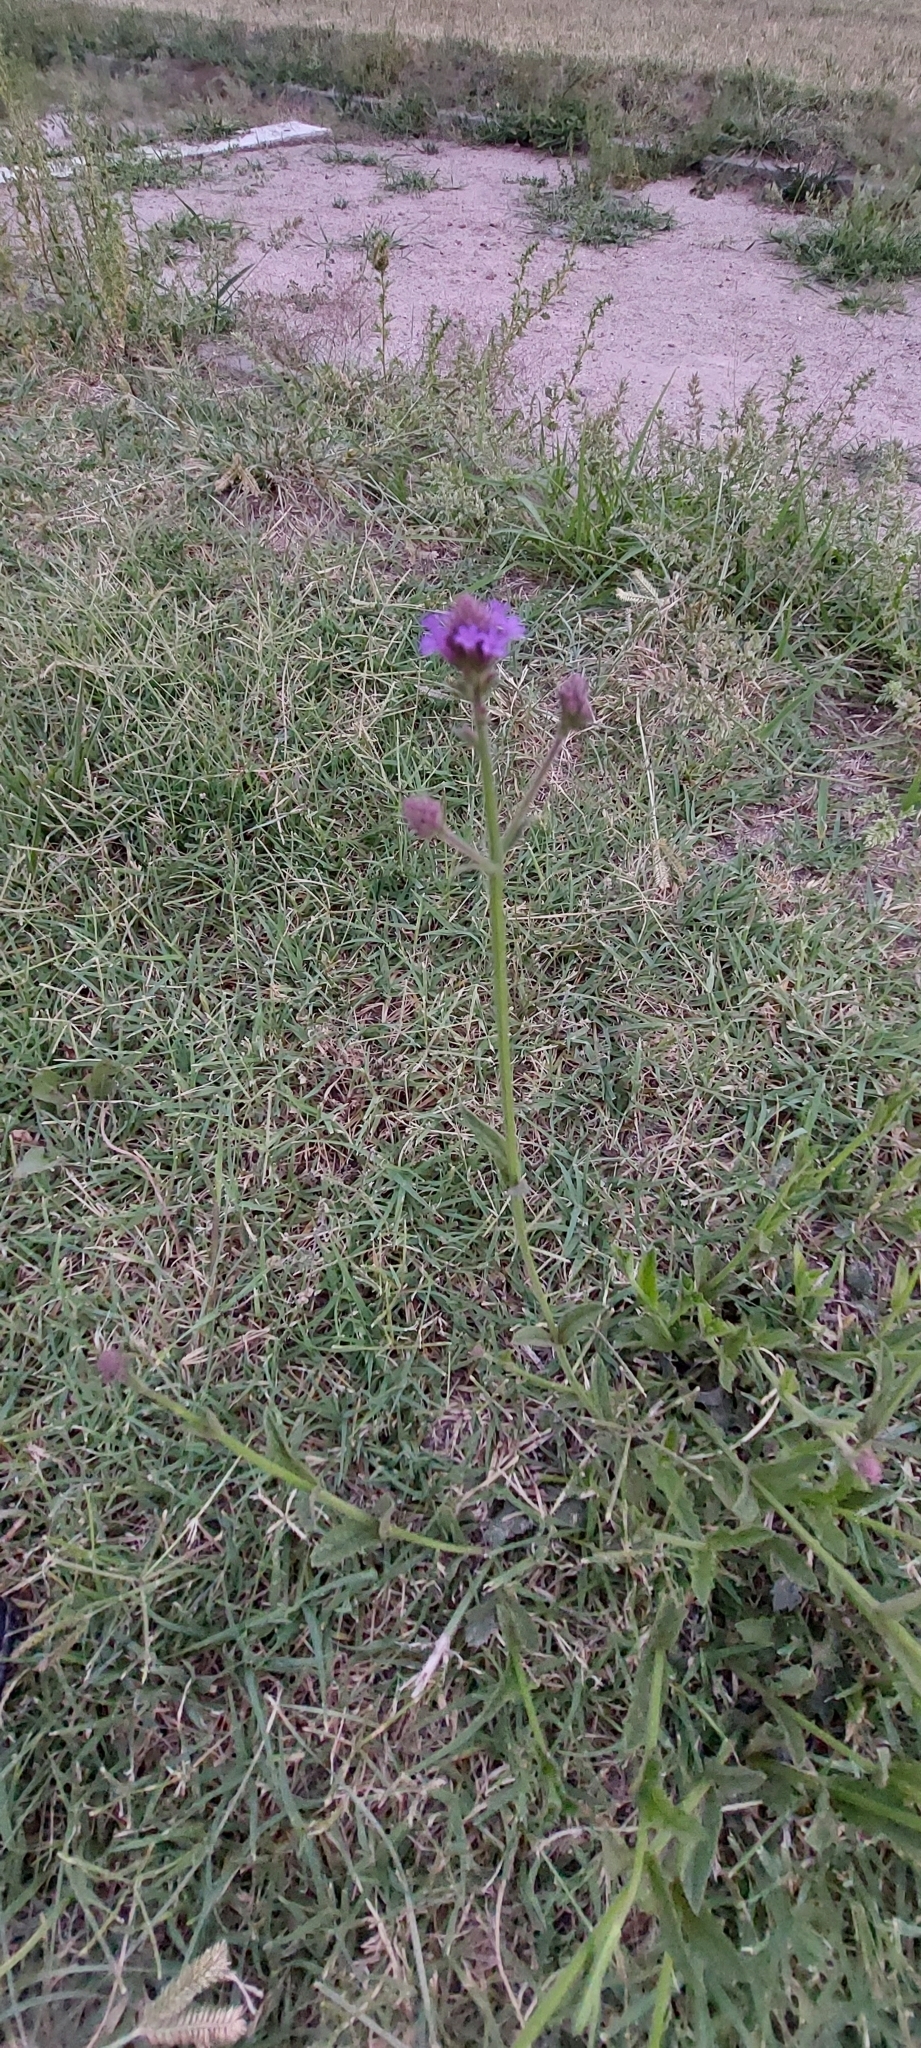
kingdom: Plantae
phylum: Tracheophyta
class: Magnoliopsida
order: Lamiales
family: Verbenaceae
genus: Verbena
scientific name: Verbena bonariensis
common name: Purpletop vervain
